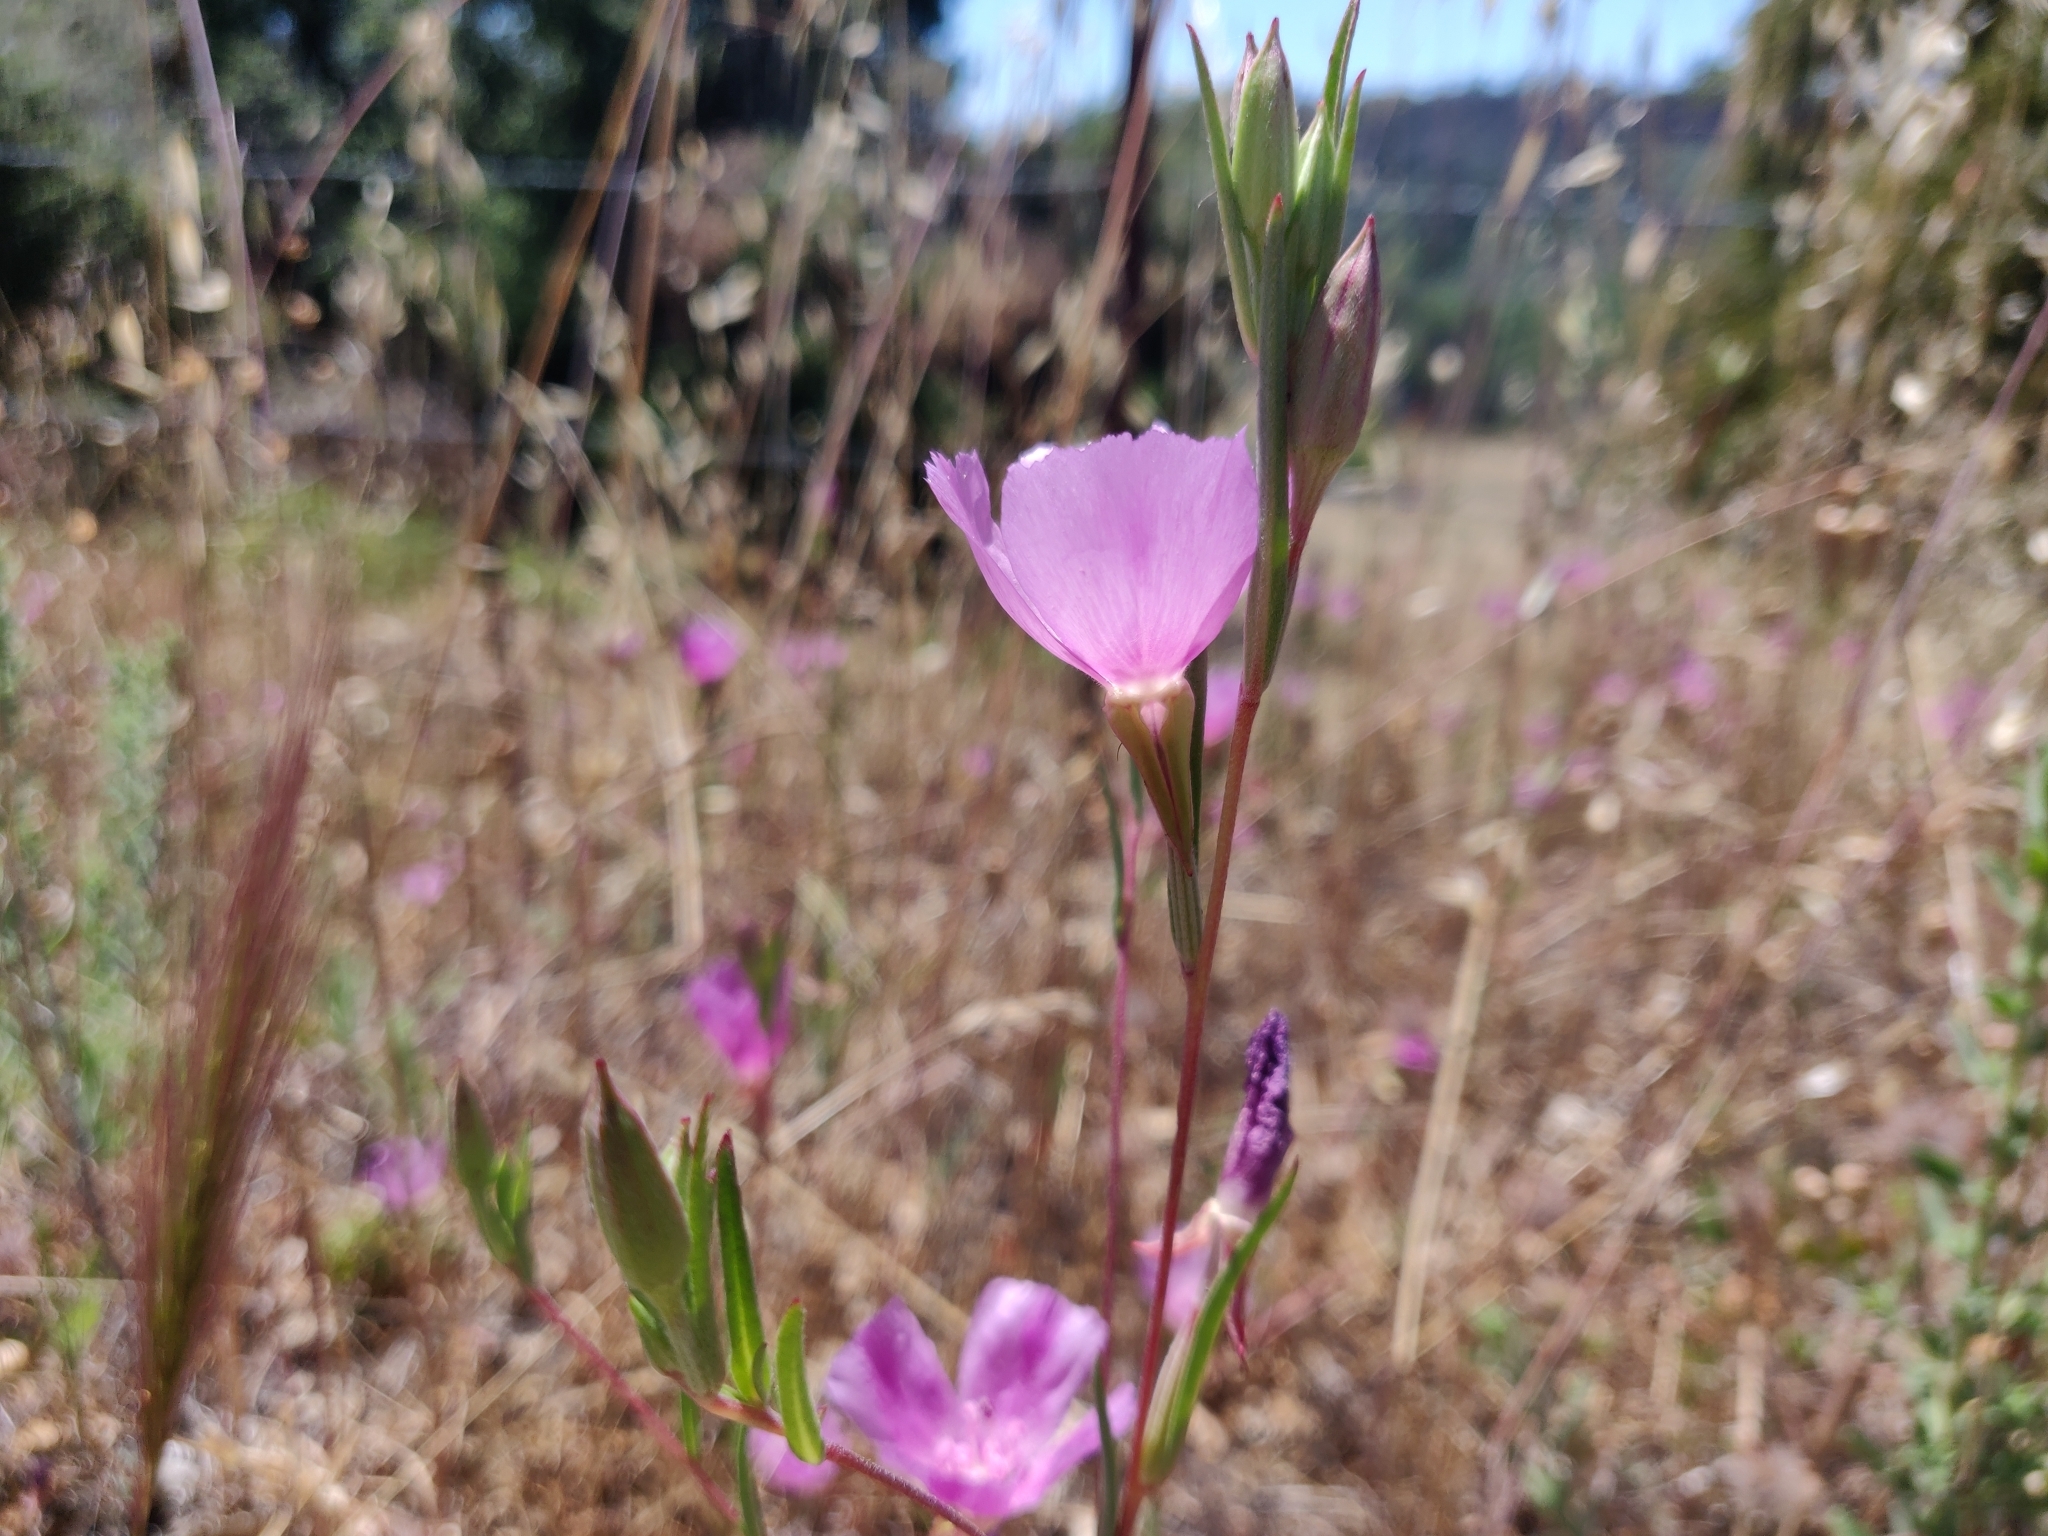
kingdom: Plantae
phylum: Tracheophyta
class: Magnoliopsida
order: Myrtales
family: Onagraceae
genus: Clarkia
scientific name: Clarkia purpurea
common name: Purple clarkia
